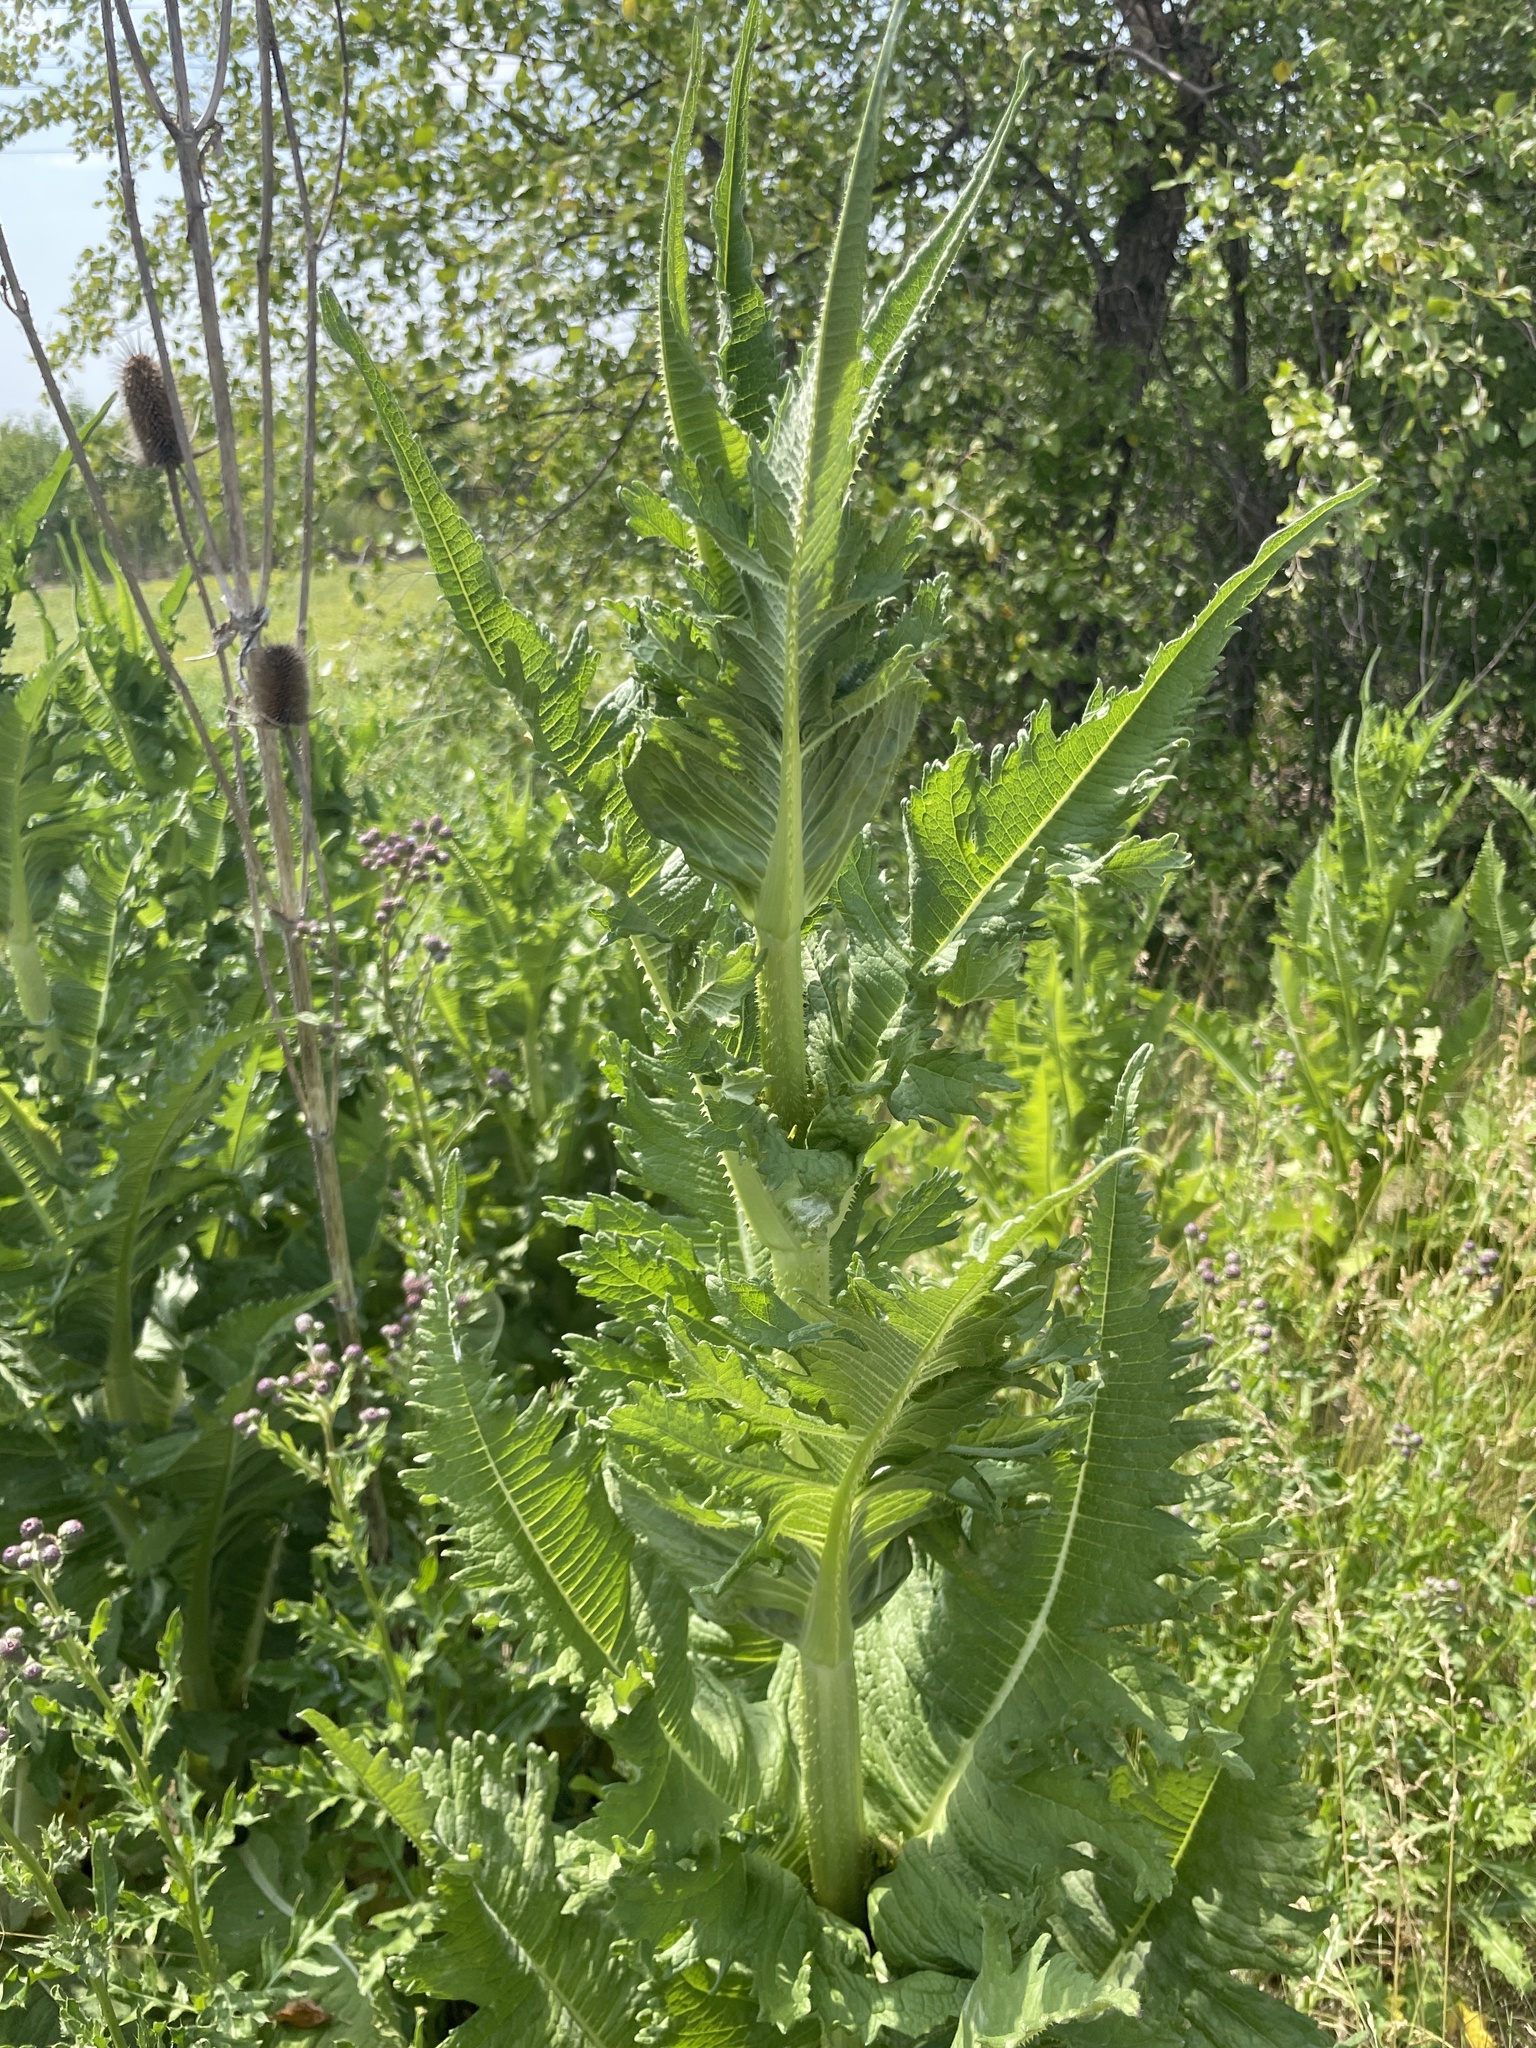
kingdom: Plantae
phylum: Tracheophyta
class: Magnoliopsida
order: Dipsacales
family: Caprifoliaceae
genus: Dipsacus
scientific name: Dipsacus laciniatus
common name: Cut-leaved teasel
